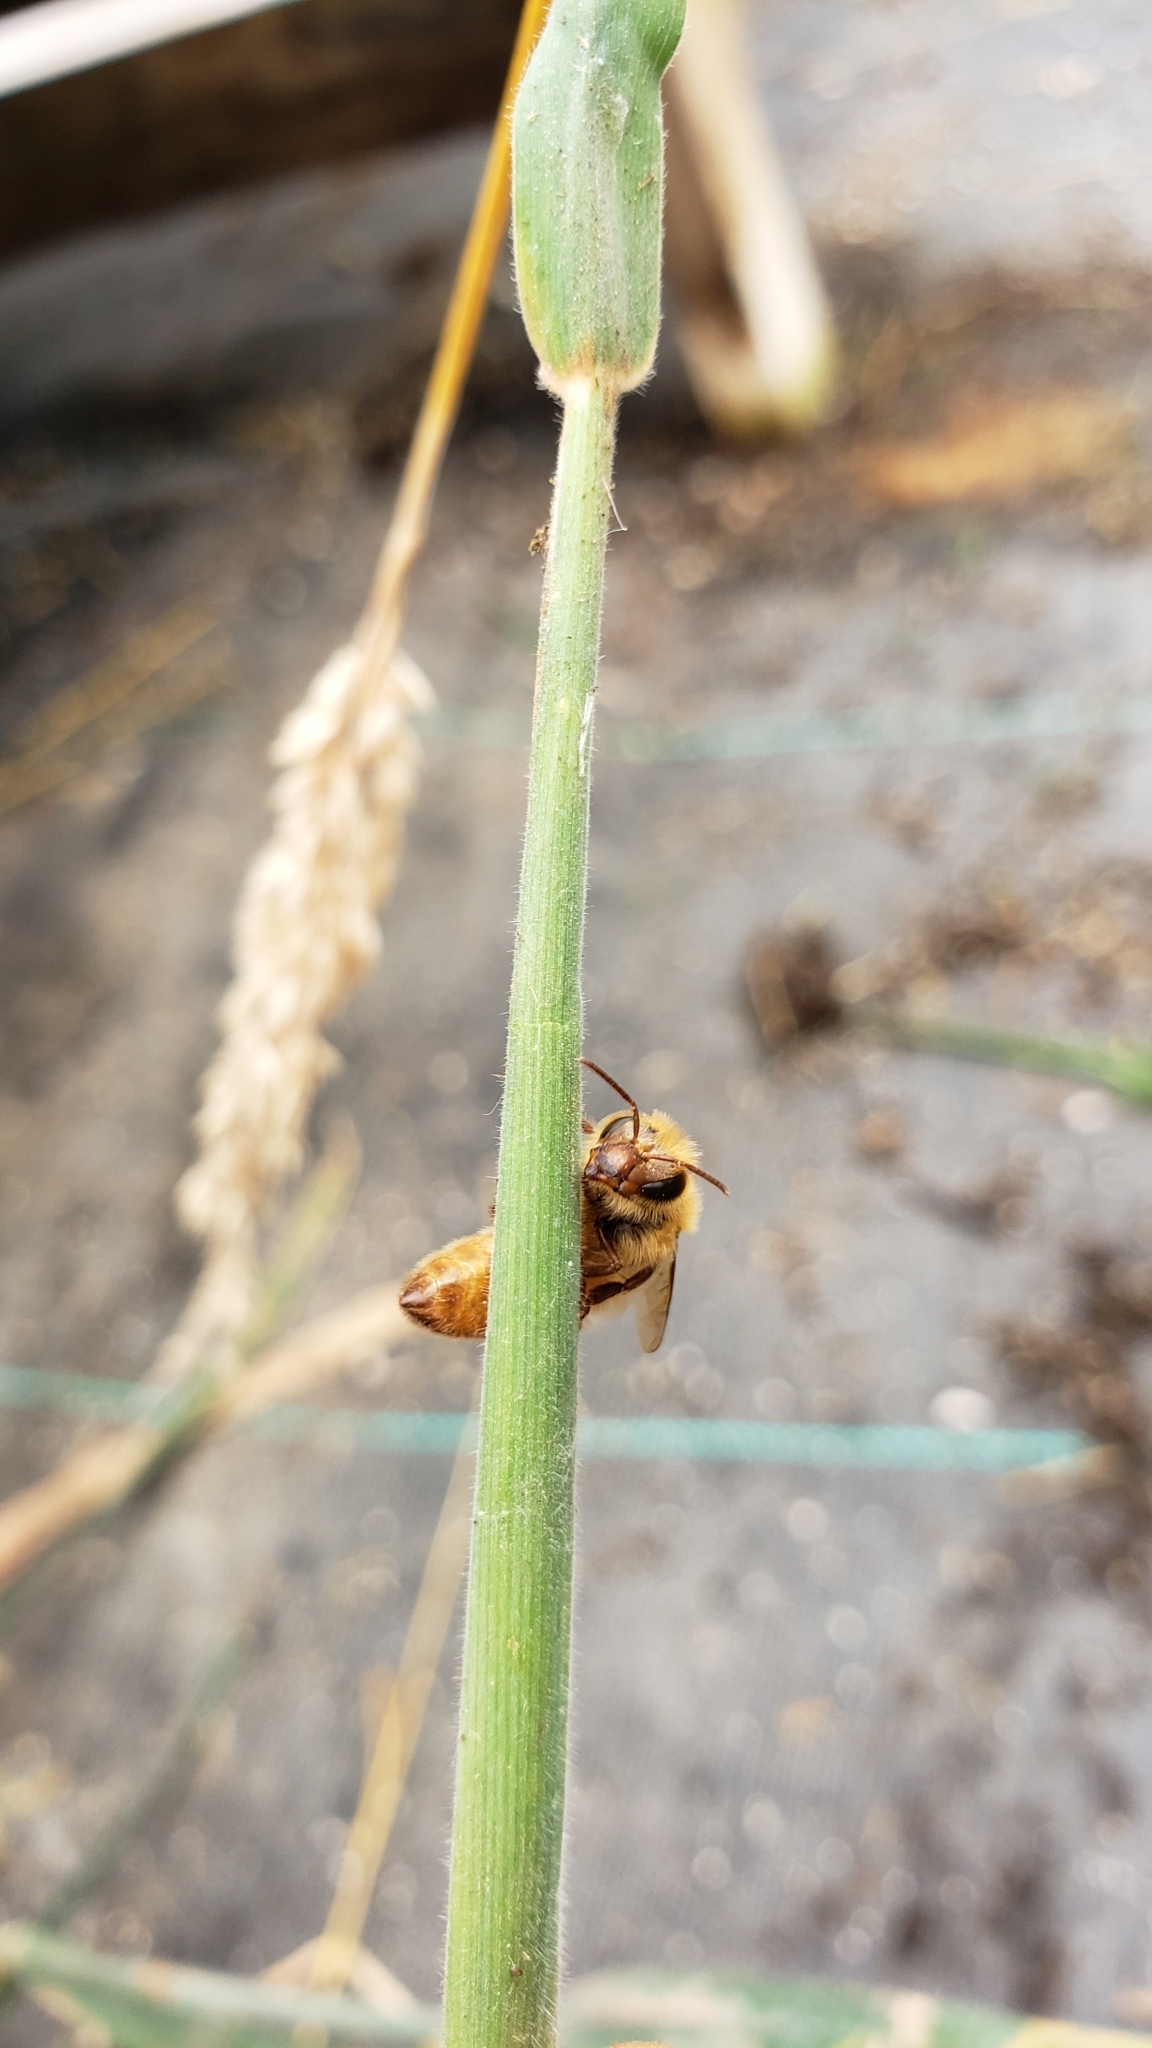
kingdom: Animalia
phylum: Arthropoda
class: Insecta
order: Hymenoptera
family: Apidae
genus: Apis
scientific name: Apis mellifera
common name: Honey bee
